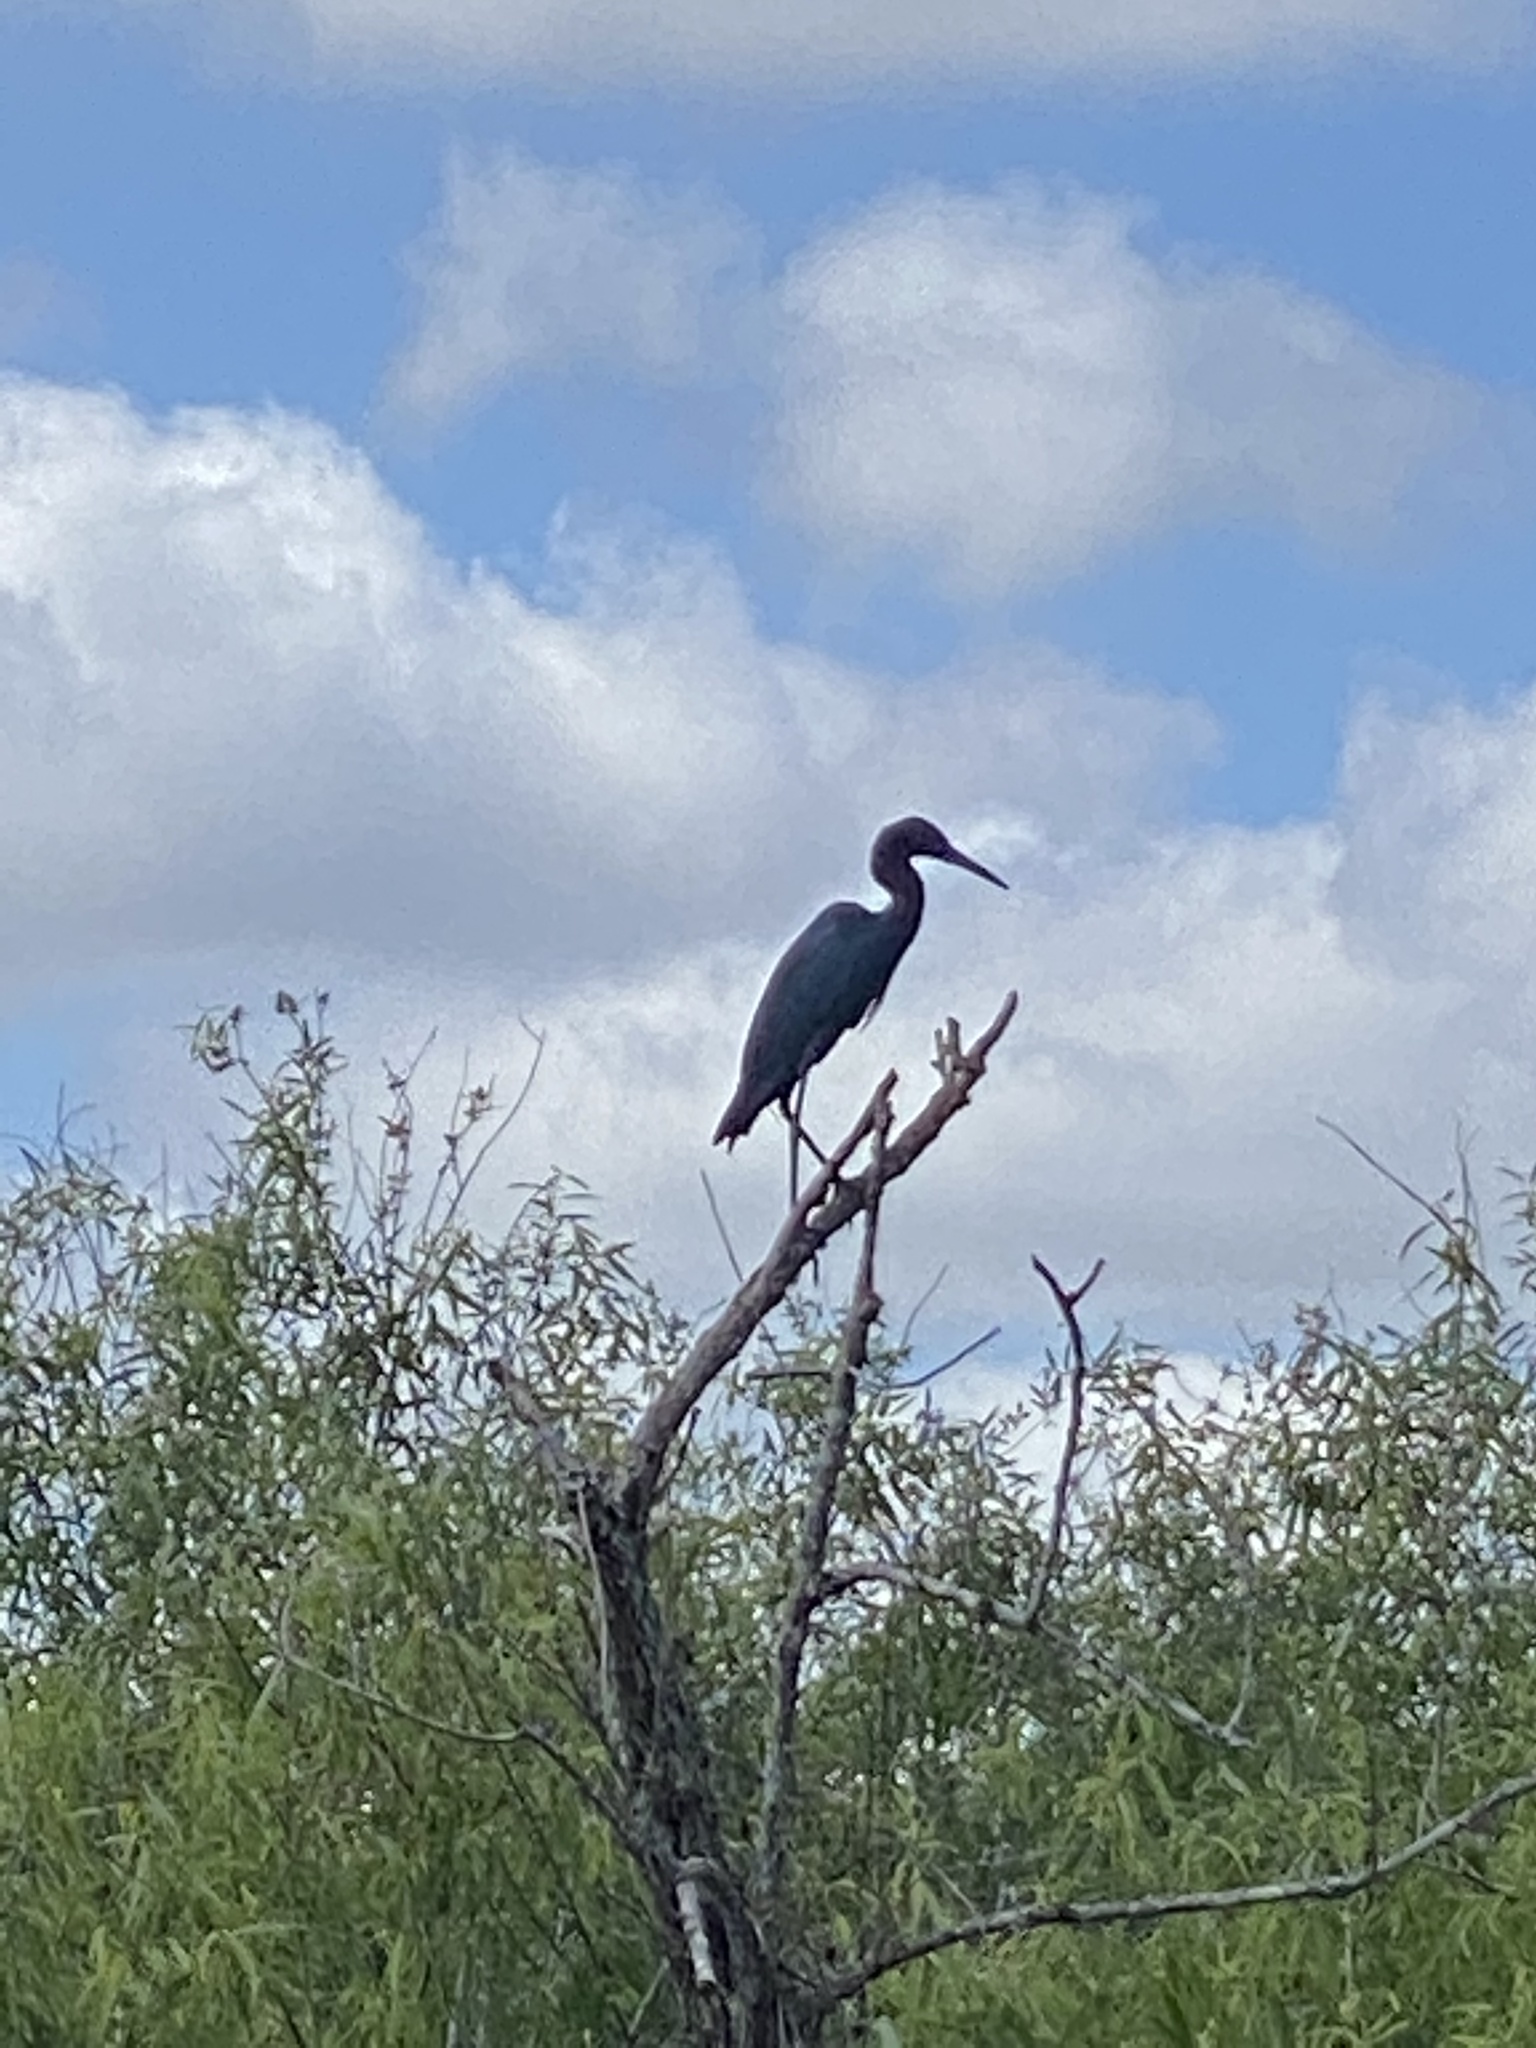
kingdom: Animalia
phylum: Chordata
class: Aves
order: Pelecaniformes
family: Ardeidae
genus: Egretta
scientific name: Egretta caerulea
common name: Little blue heron
